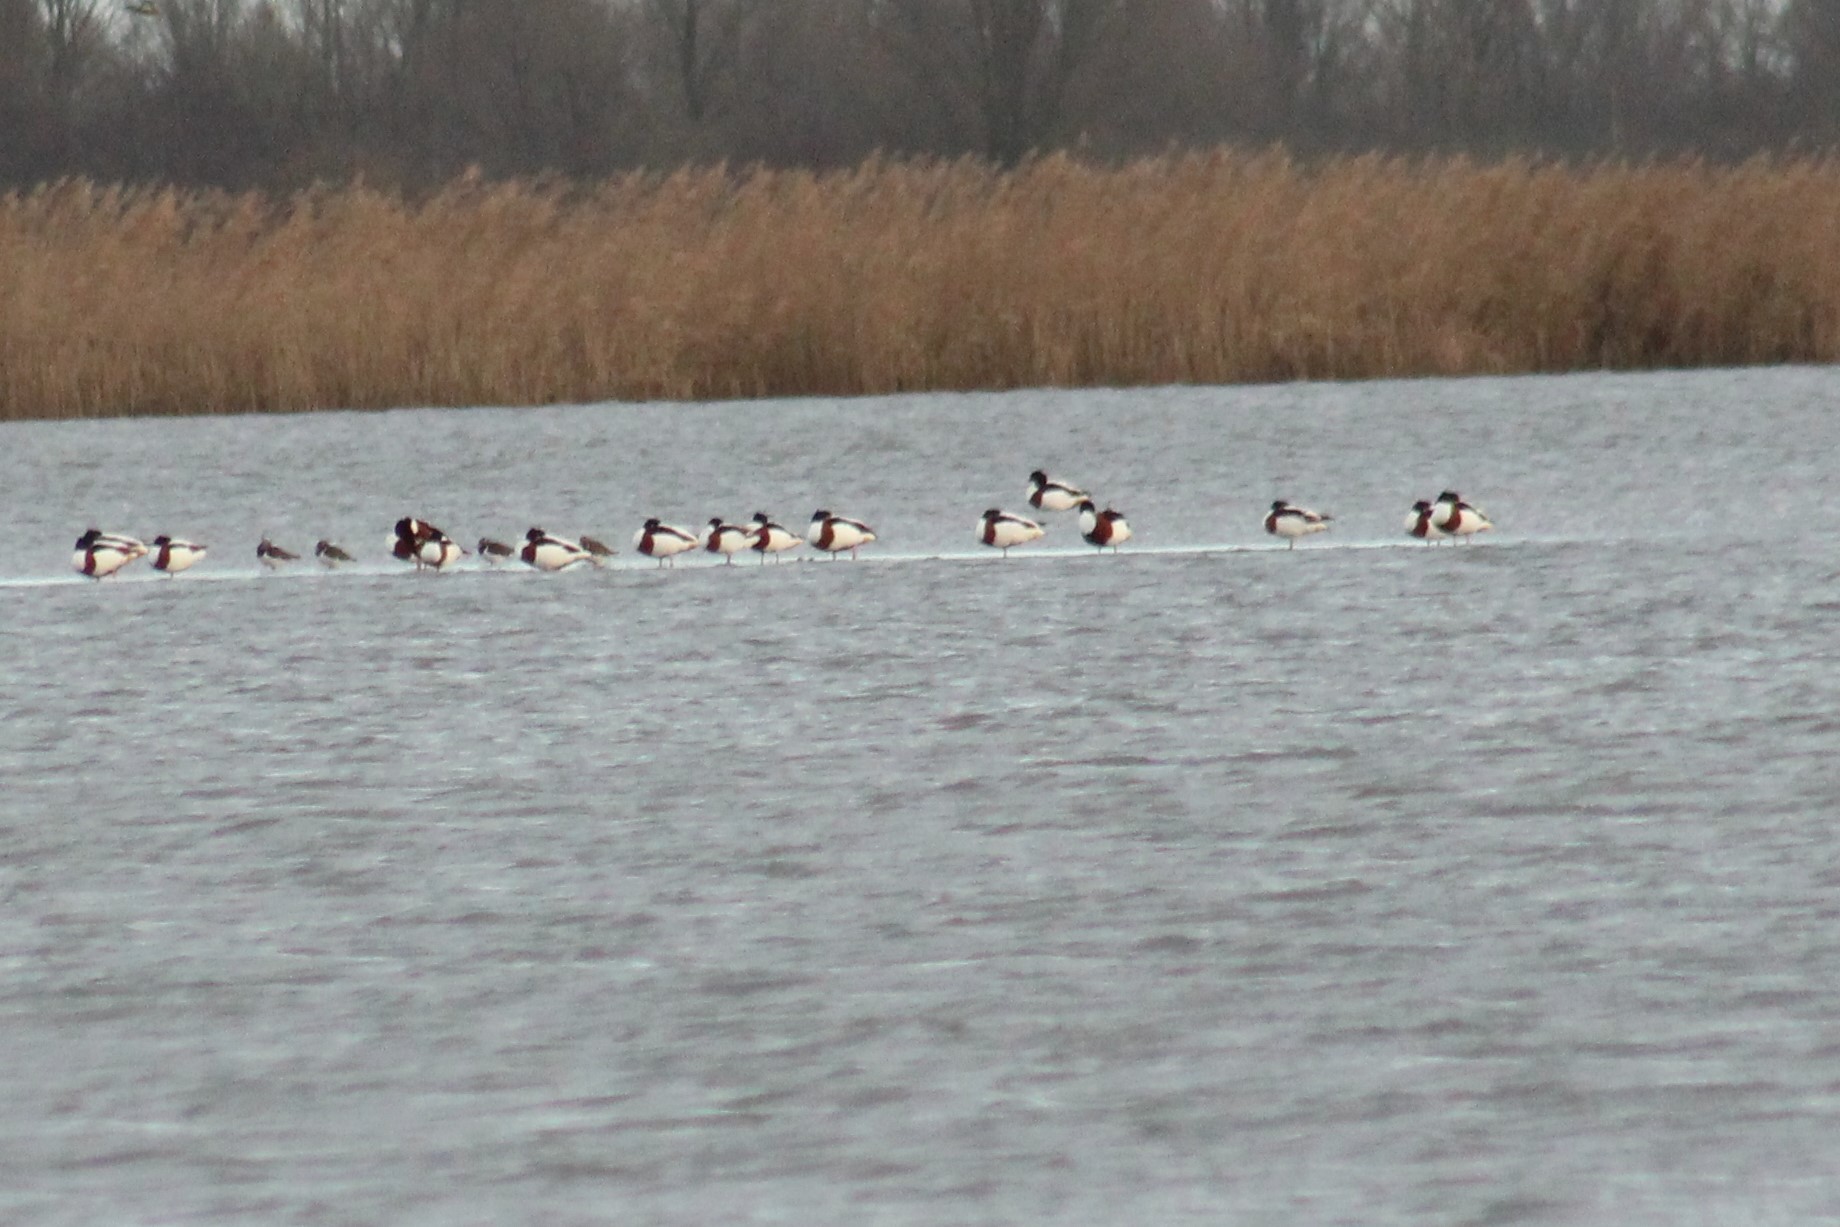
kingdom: Animalia
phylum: Chordata
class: Aves
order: Anseriformes
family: Anatidae
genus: Tadorna
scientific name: Tadorna tadorna
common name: Common shelduck
